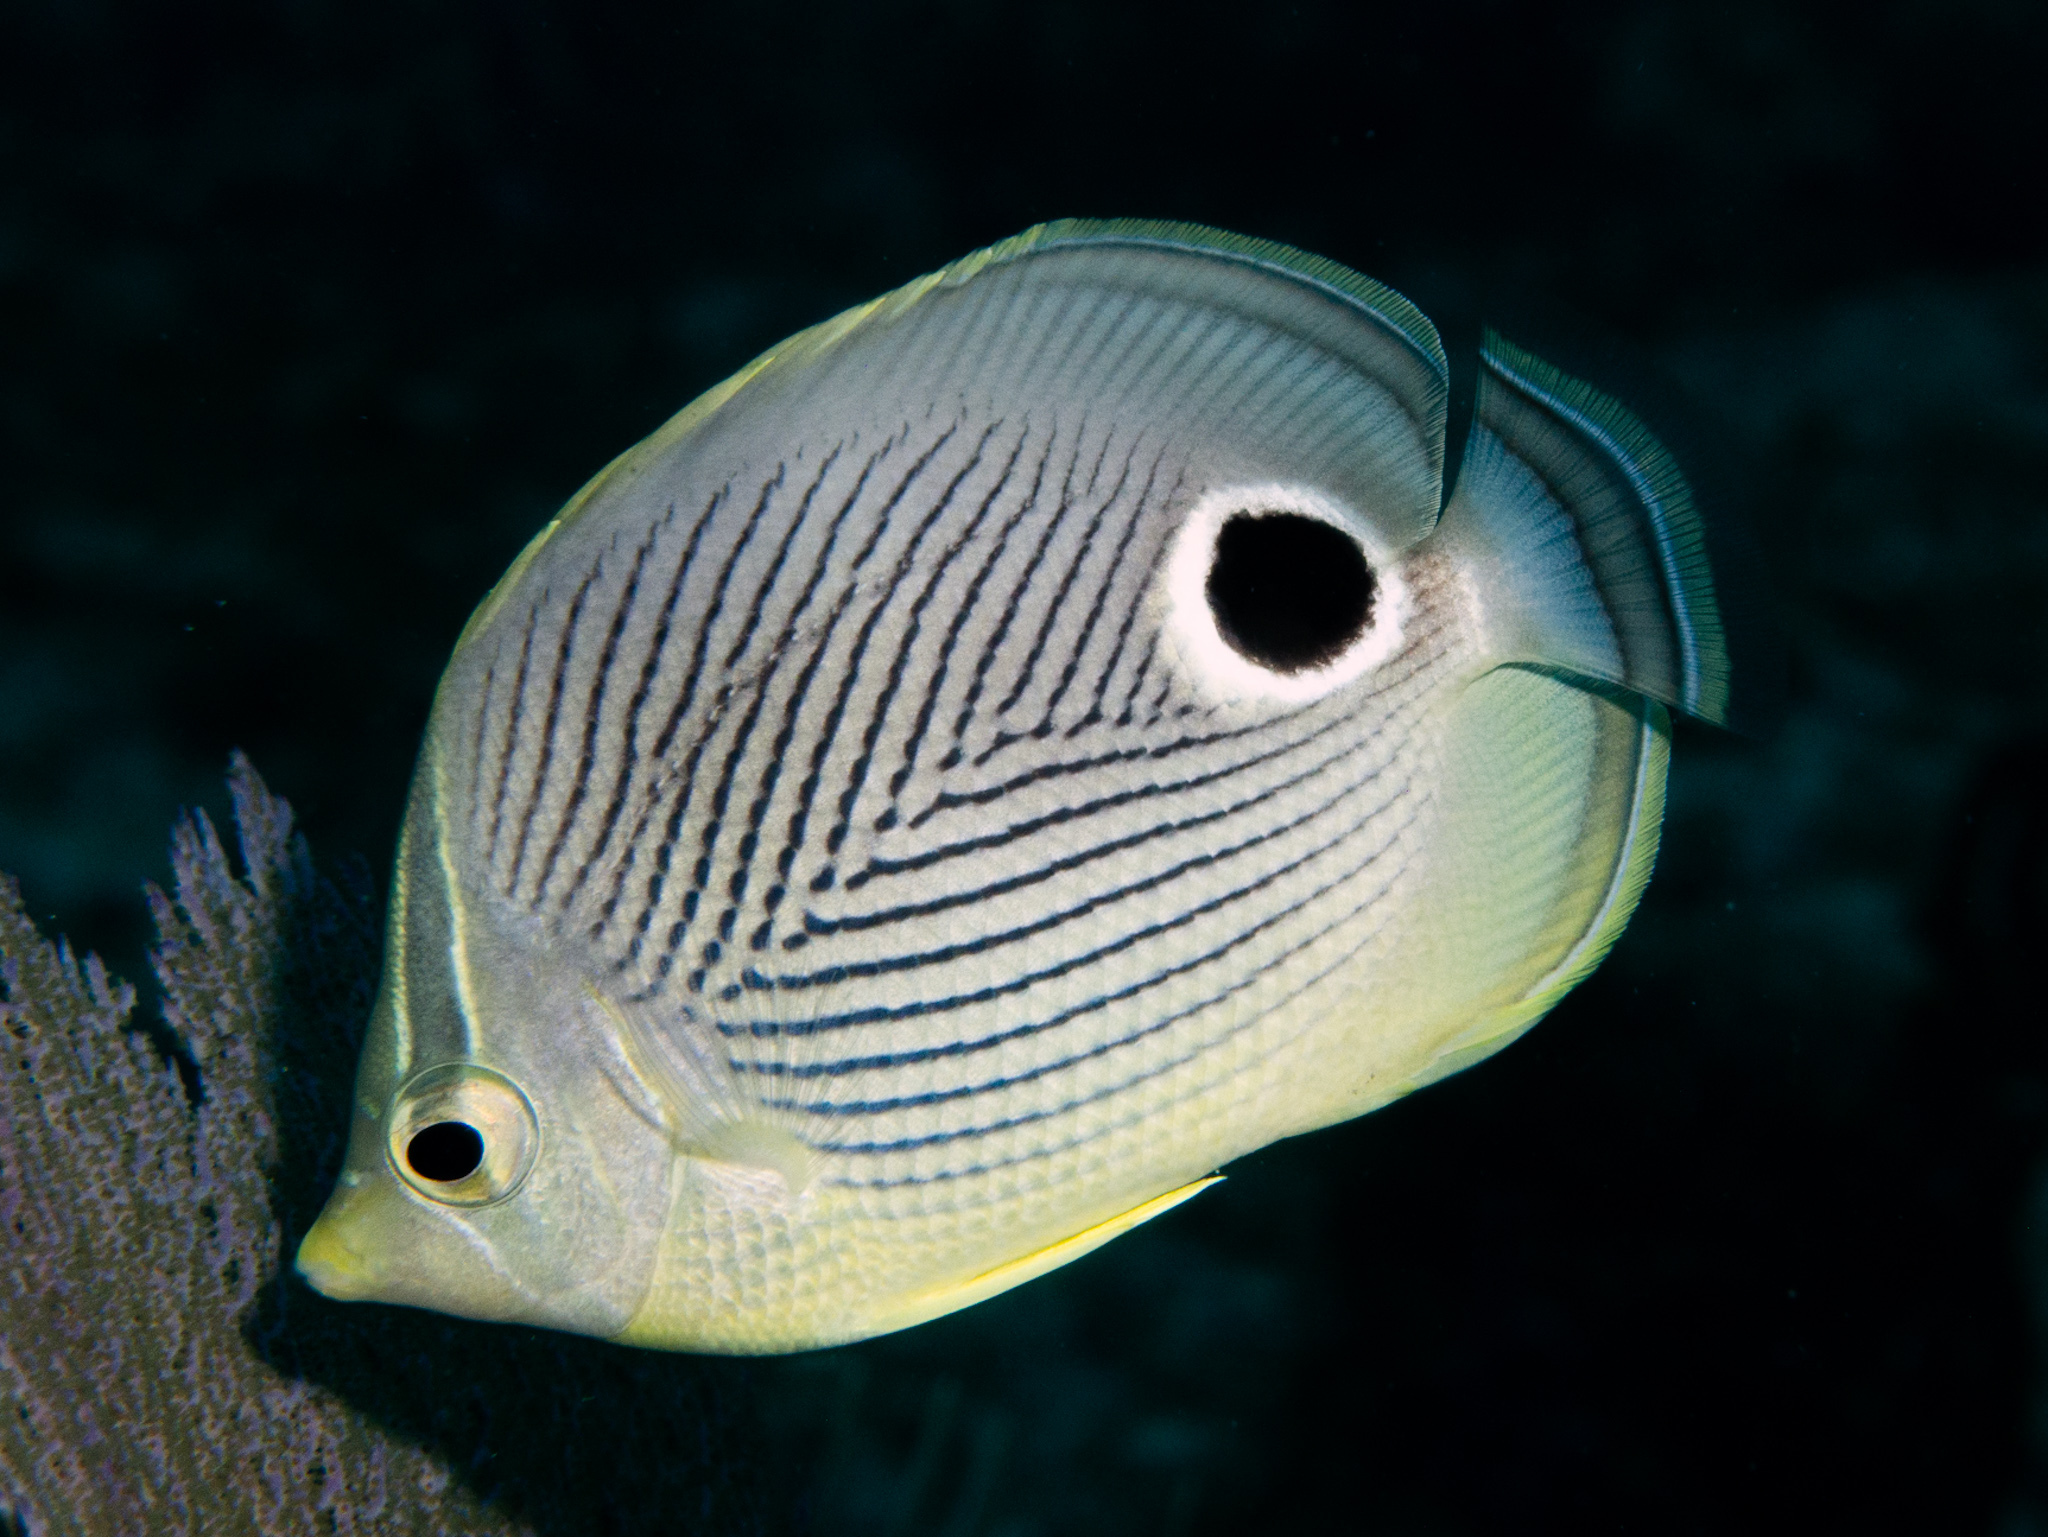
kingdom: Animalia
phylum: Chordata
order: Perciformes
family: Chaetodontidae
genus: Chaetodon
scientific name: Chaetodon capistratus
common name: Kete
